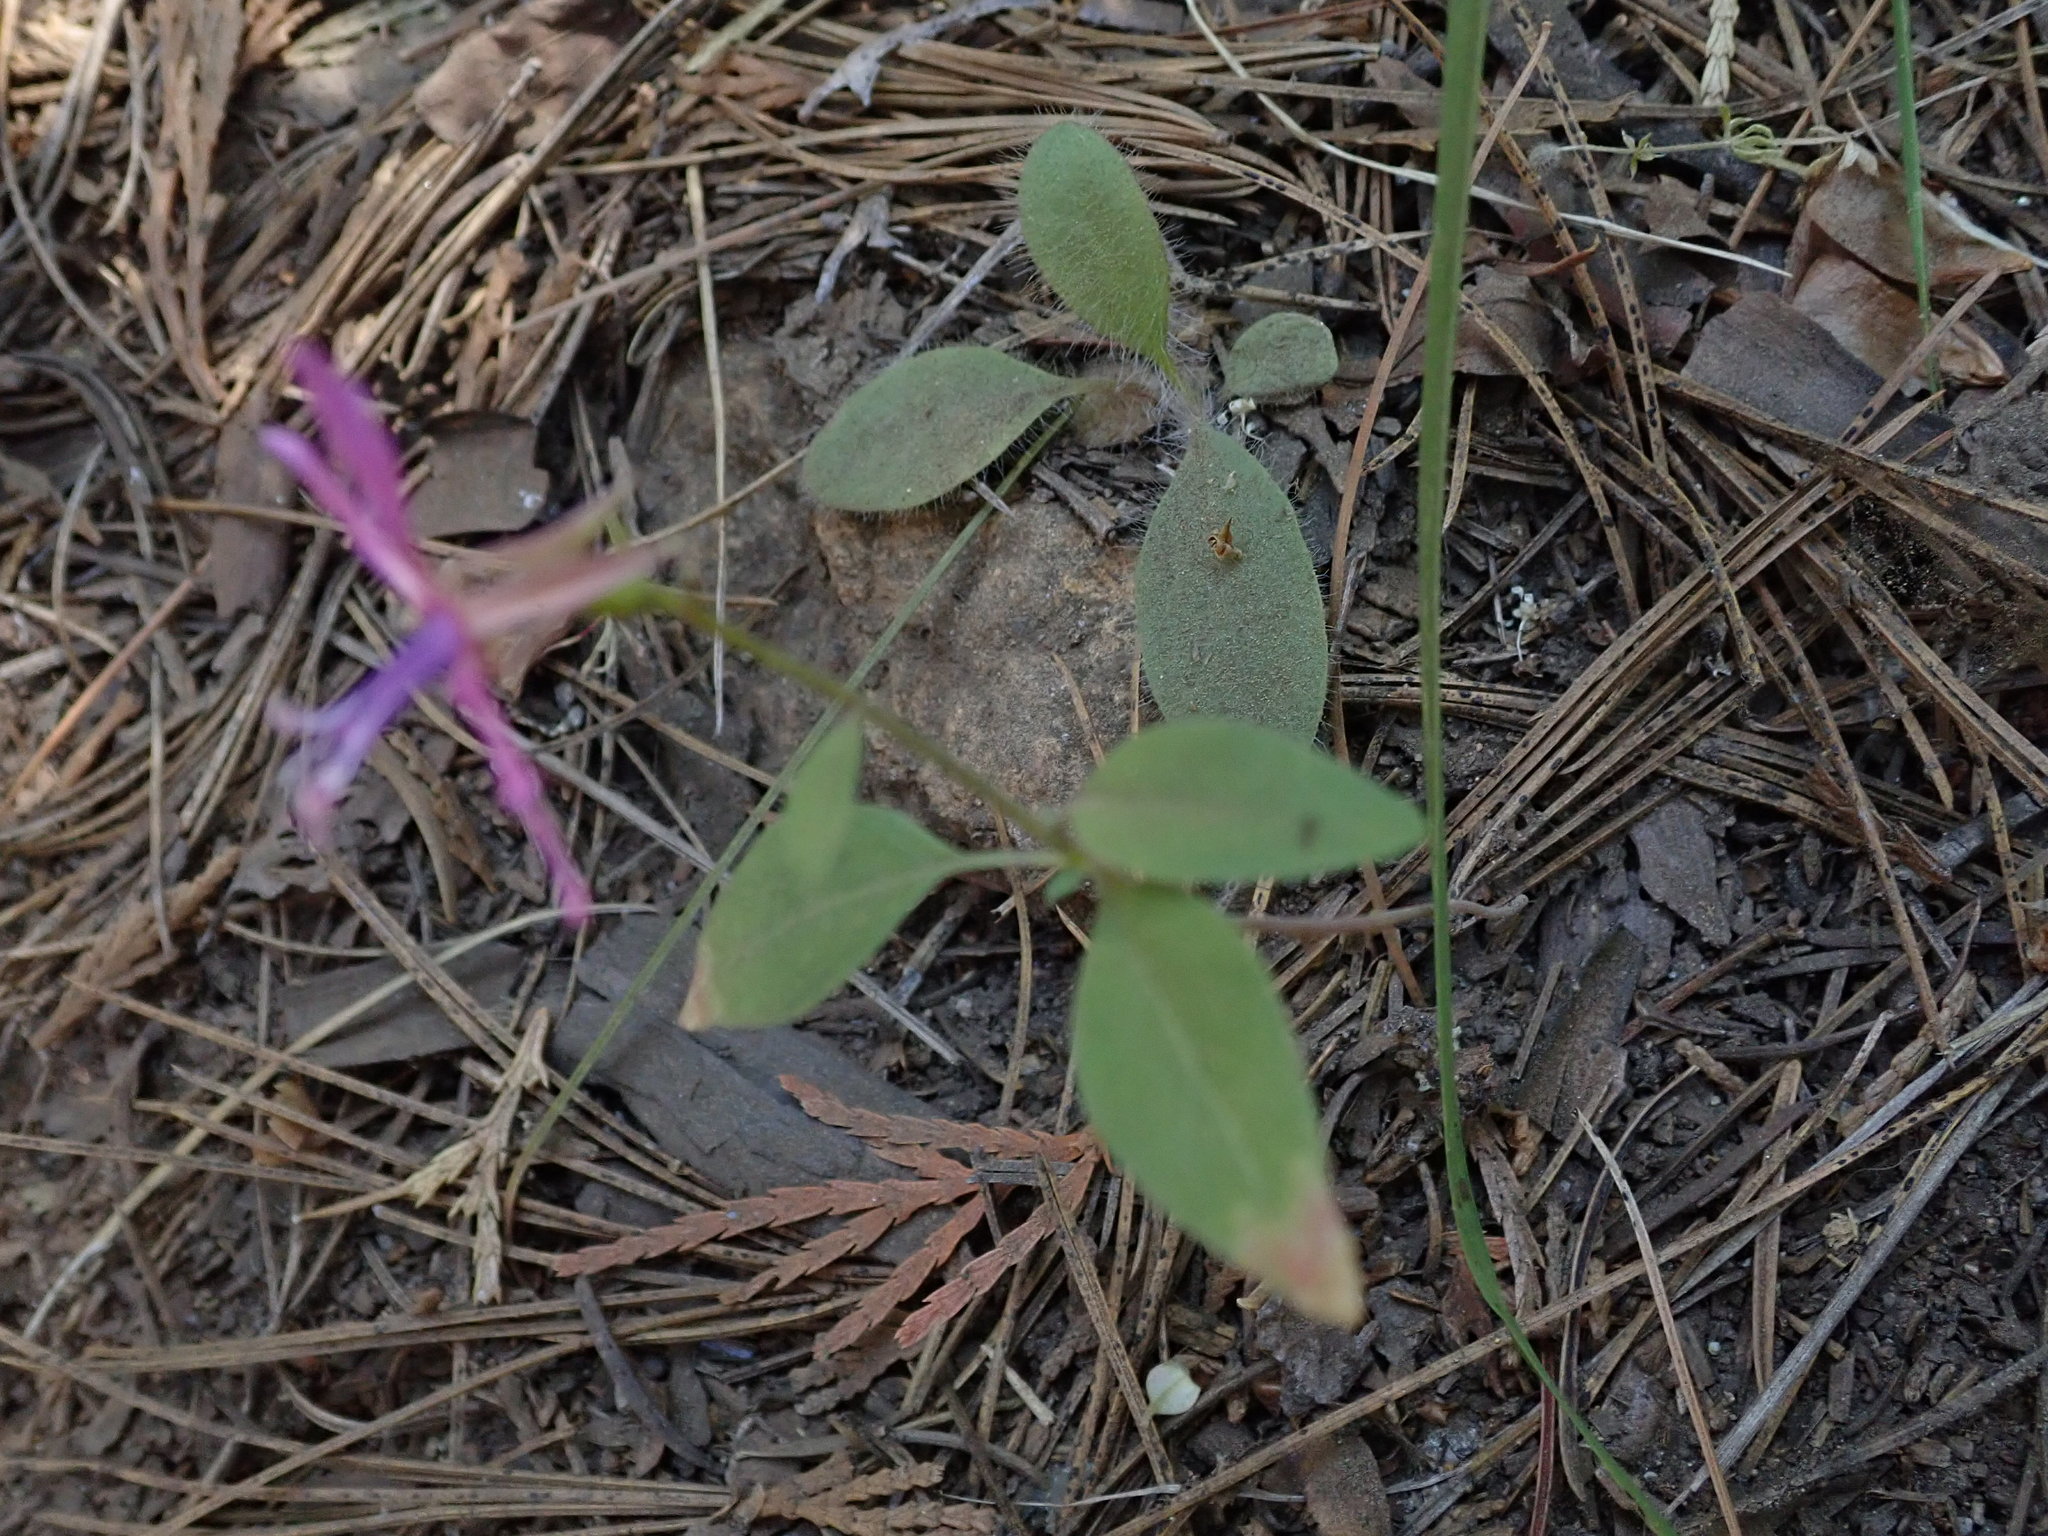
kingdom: Plantae
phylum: Tracheophyta
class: Magnoliopsida
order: Myrtales
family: Onagraceae
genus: Clarkia
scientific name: Clarkia rhomboidea
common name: Broadleaf clarkia
